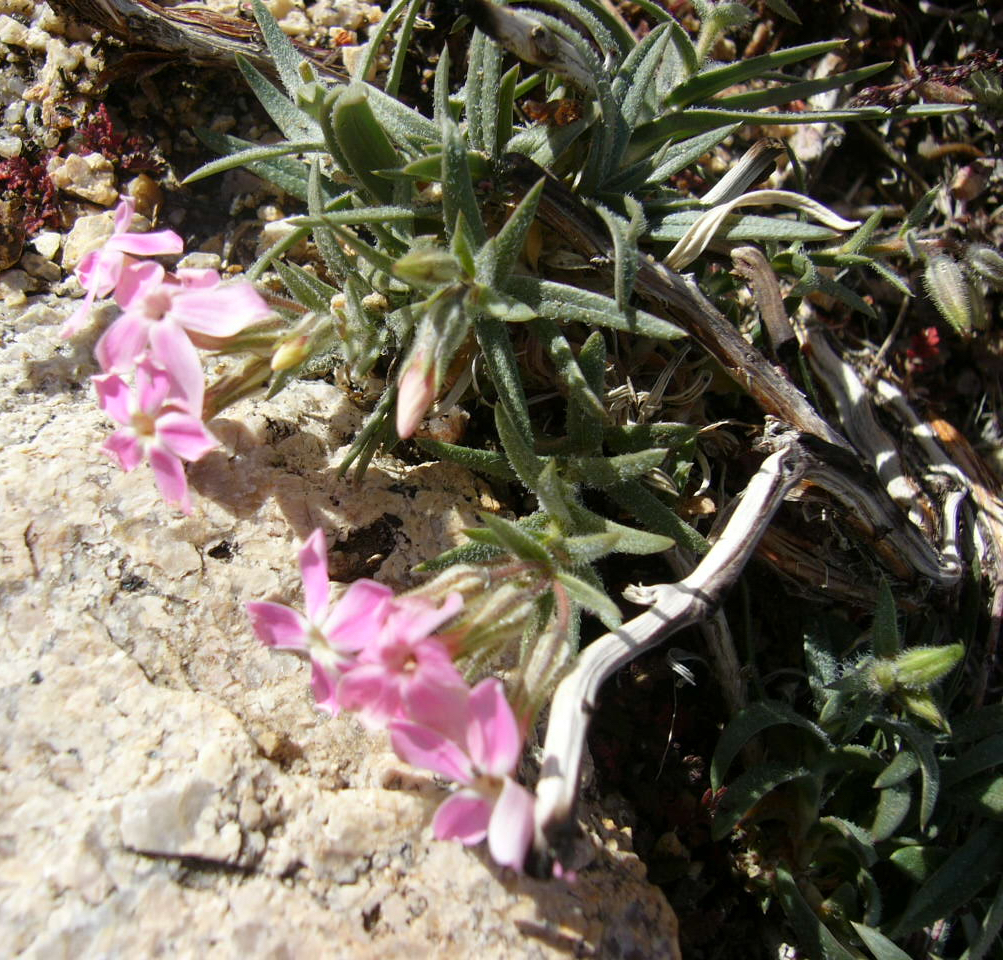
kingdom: Plantae
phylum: Tracheophyta
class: Magnoliopsida
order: Ericales
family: Polemoniaceae
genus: Phlox
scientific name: Phlox longifolia
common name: Longleaf phlox
